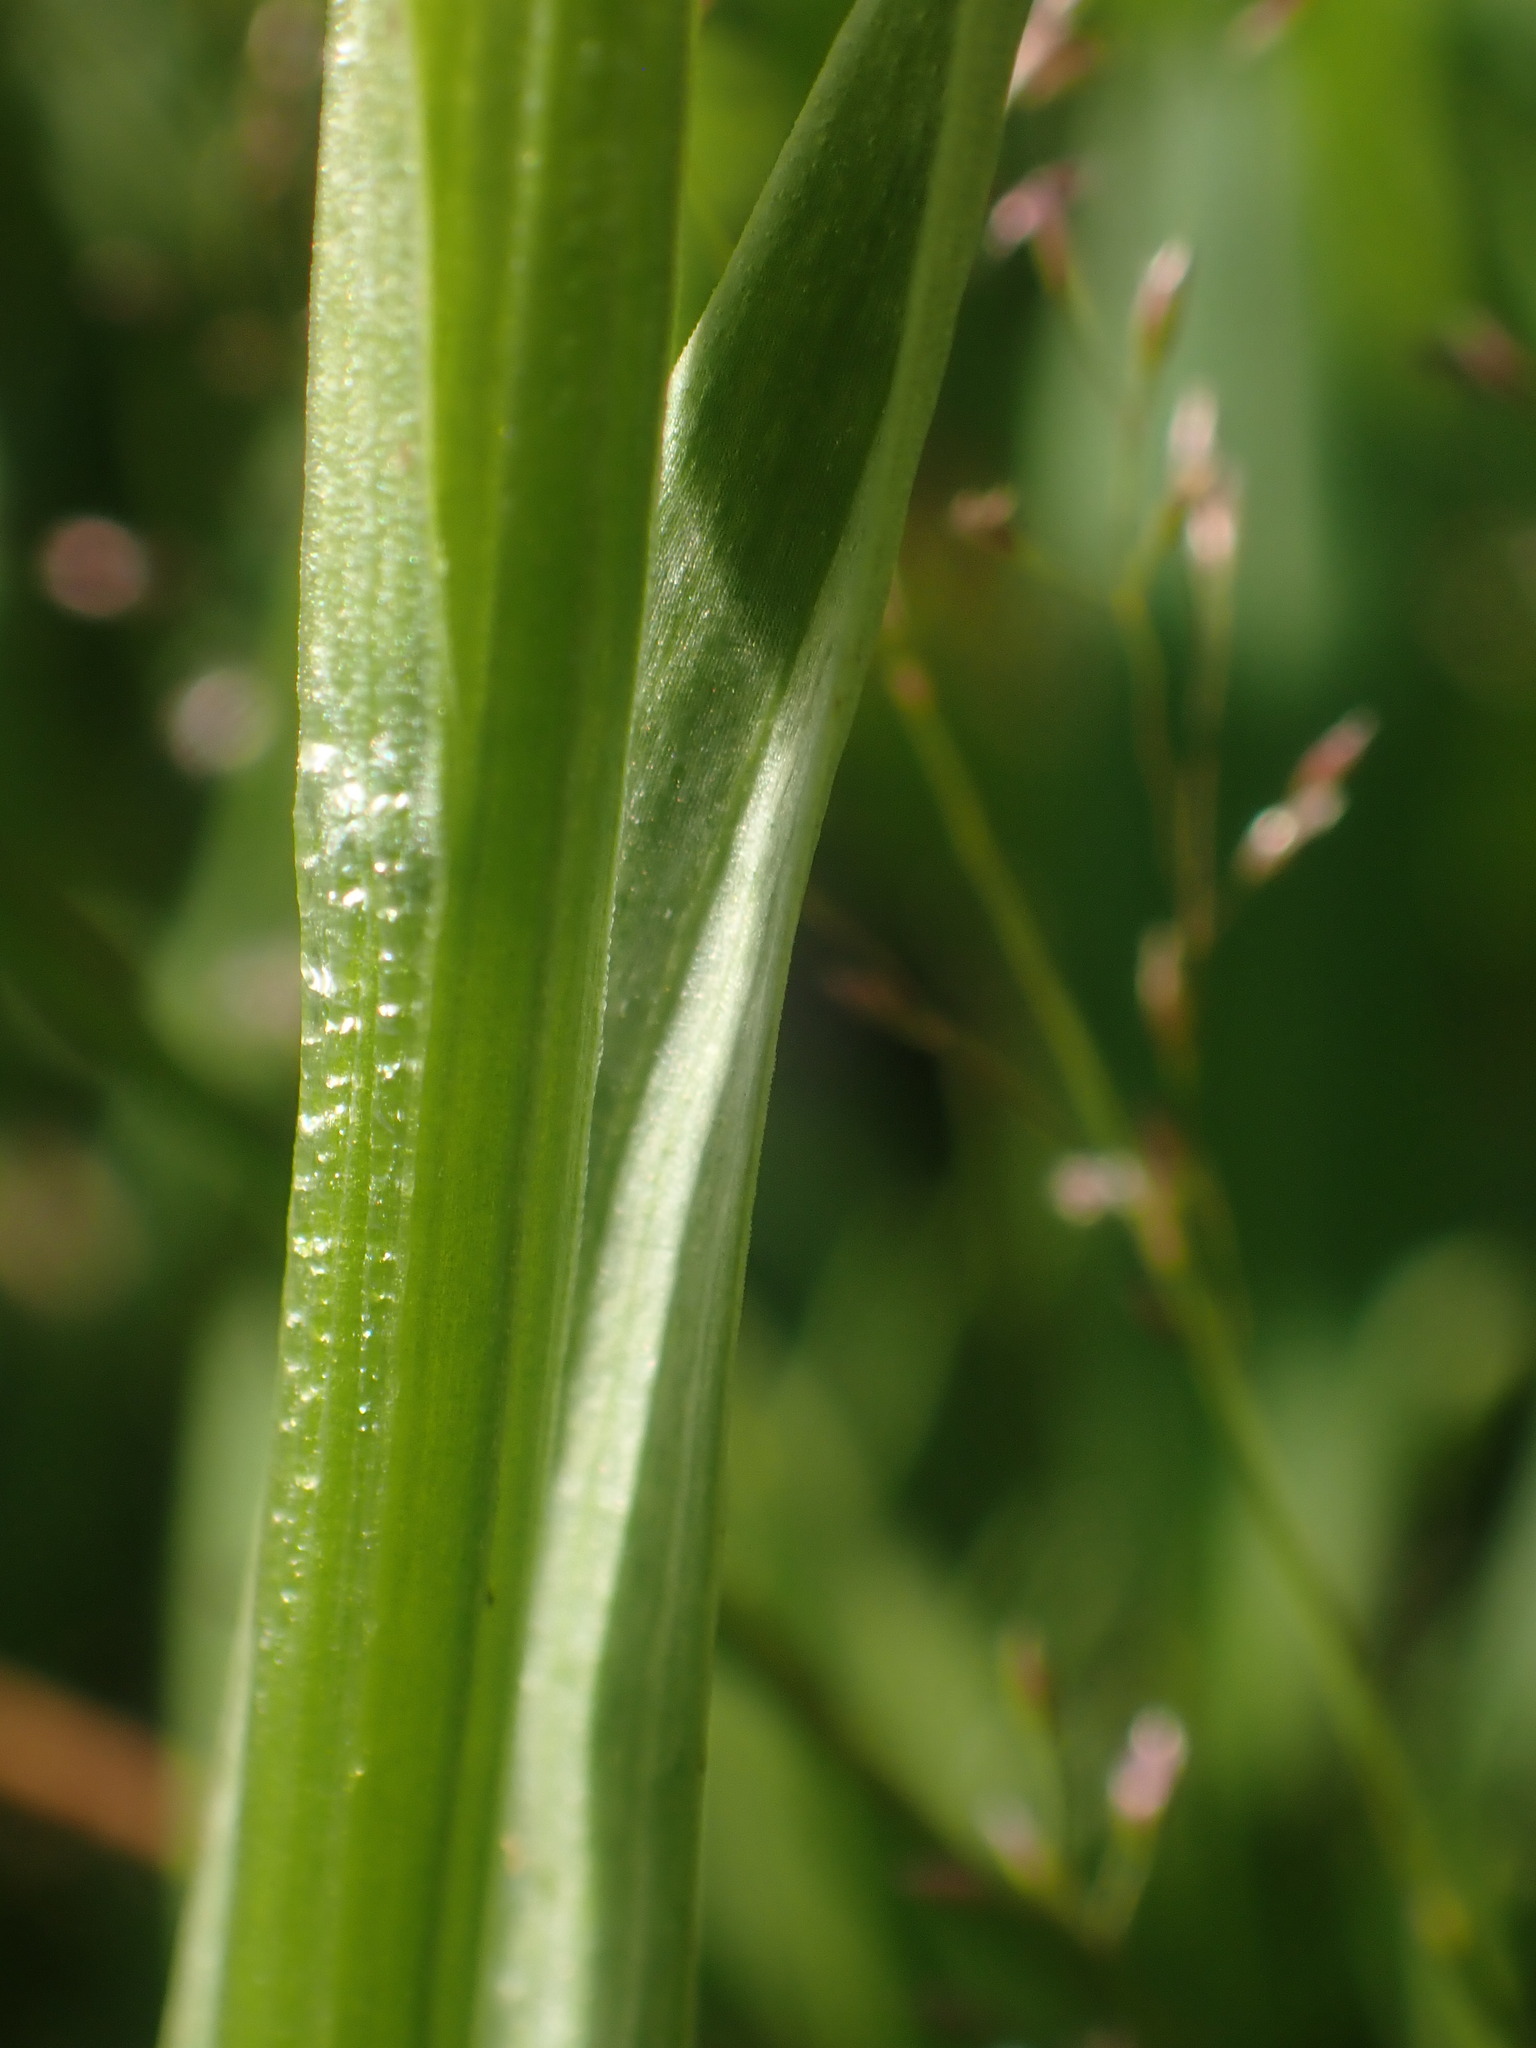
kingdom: Plantae
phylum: Tracheophyta
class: Liliopsida
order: Asparagales
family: Orchidaceae
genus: Platanthera
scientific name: Platanthera dilatata
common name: Bog candles
